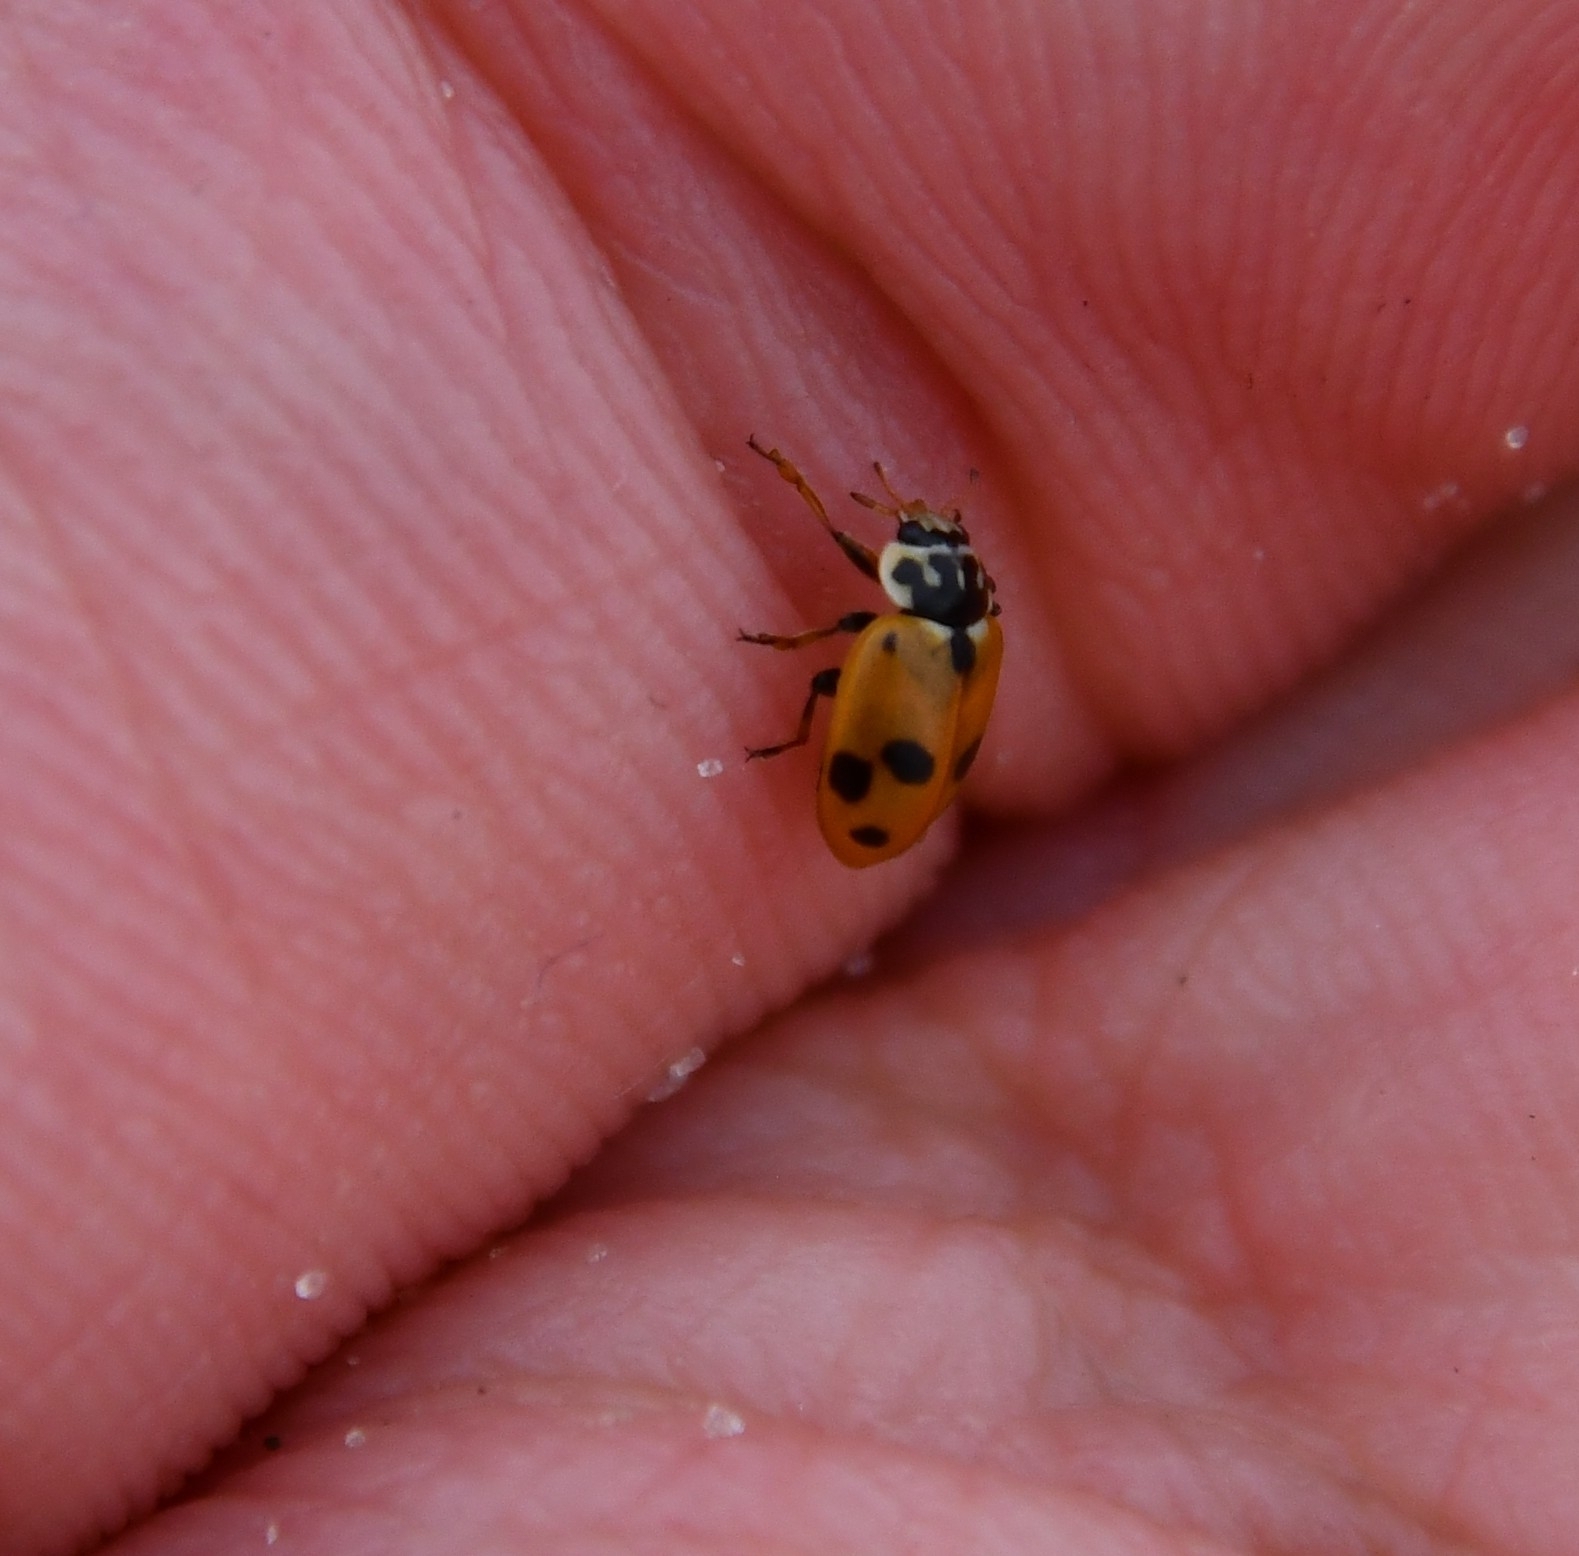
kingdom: Animalia
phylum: Arthropoda
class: Insecta
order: Coleoptera
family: Coccinellidae
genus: Hippodamia
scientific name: Hippodamia variegata
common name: Ladybird beetle
